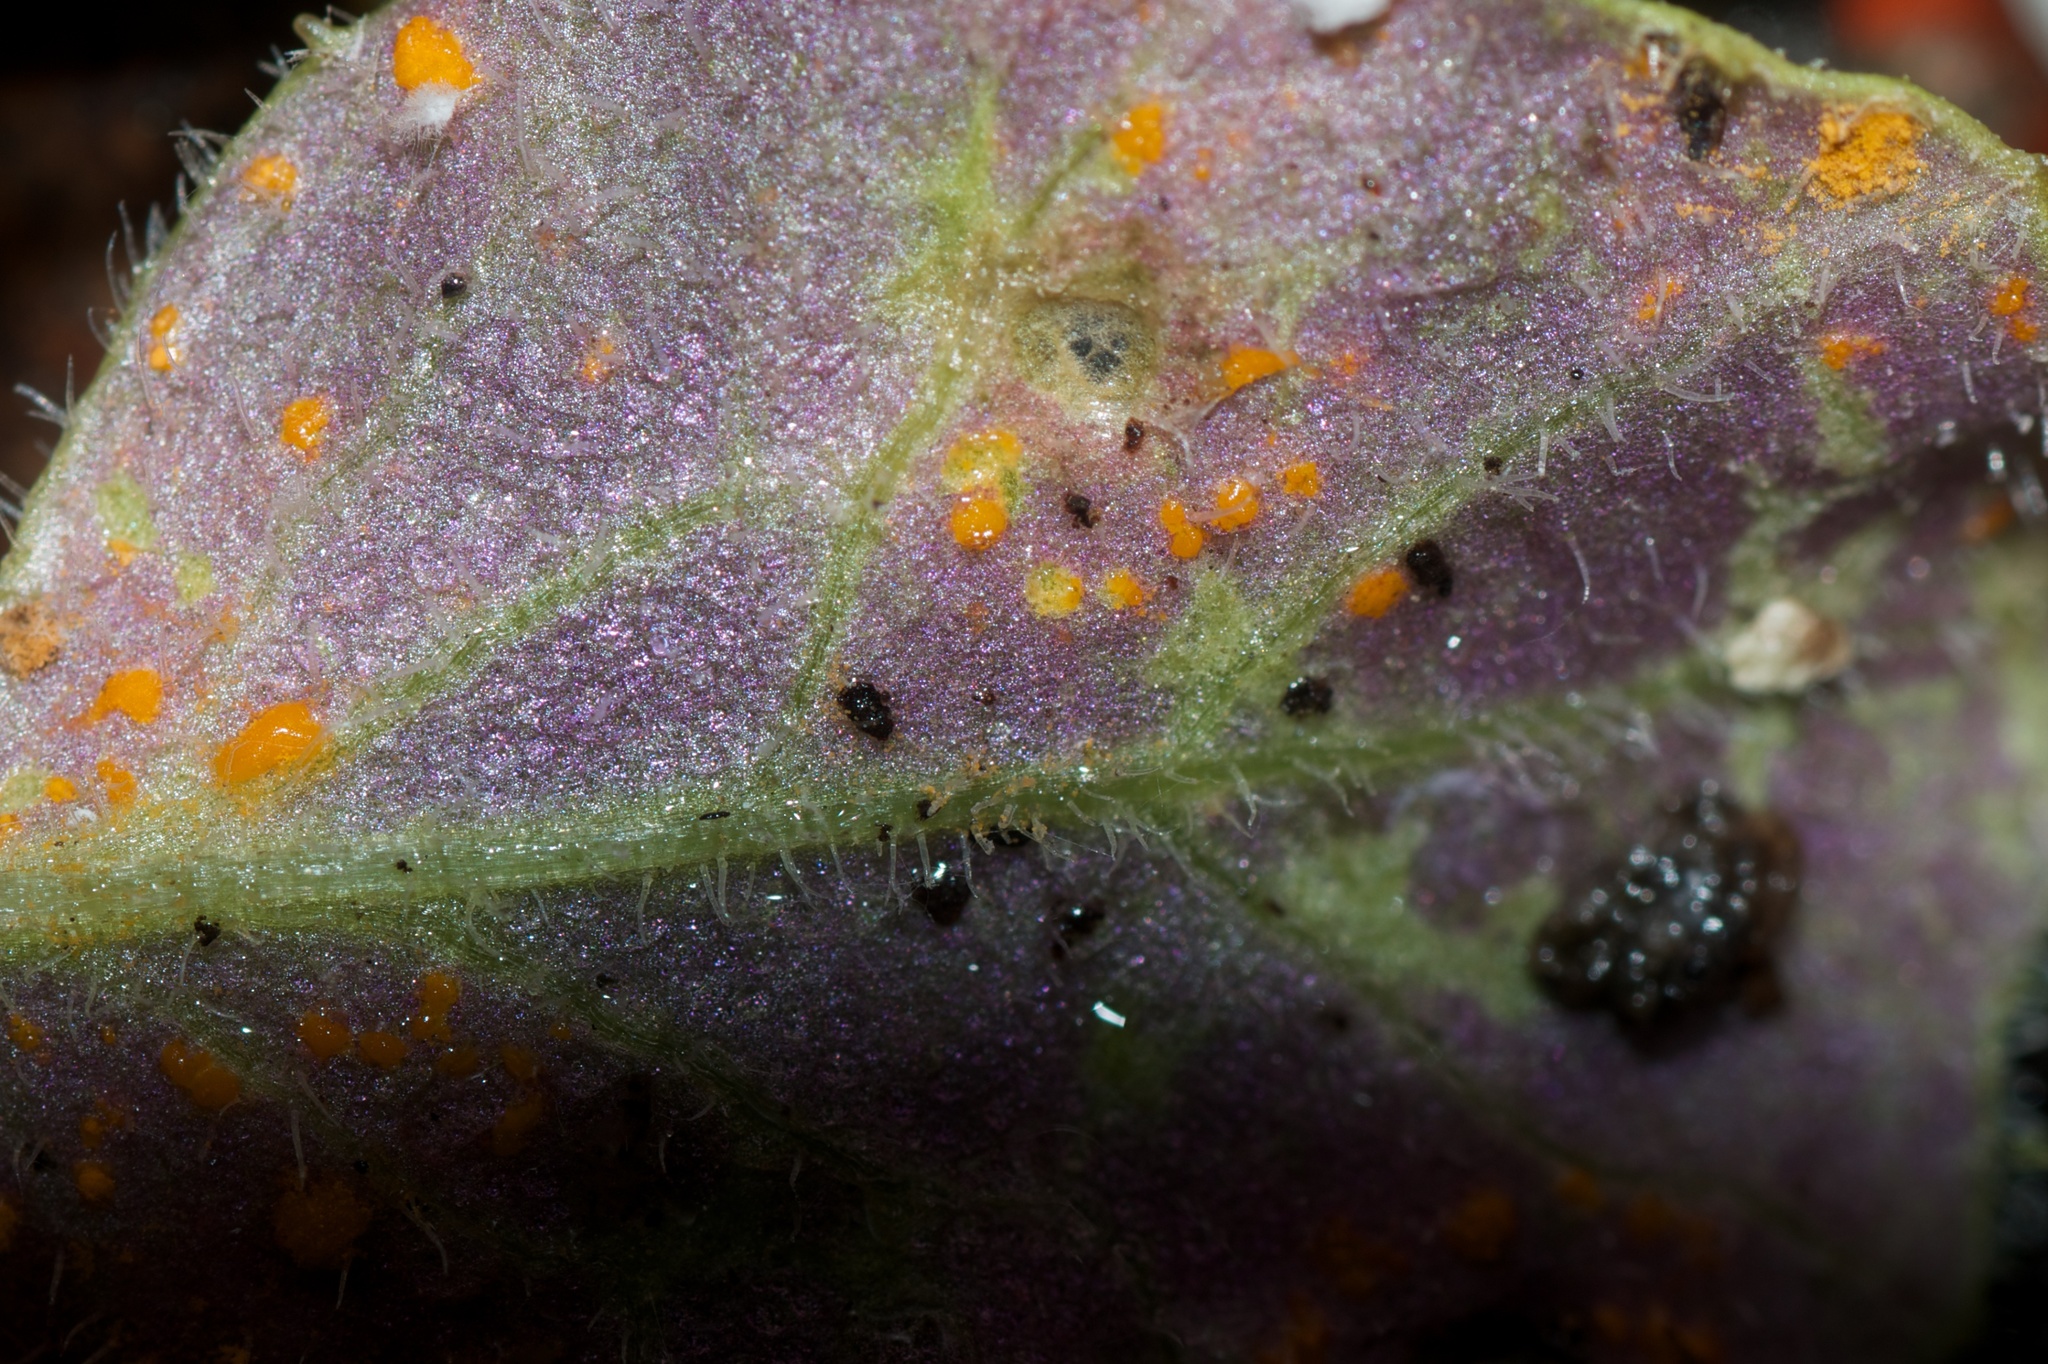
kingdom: Fungi
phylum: Basidiomycota
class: Pucciniomycetes
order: Pucciniales
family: Coleosporiaceae
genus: Coleosporium
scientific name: Coleosporium tussilaginis
